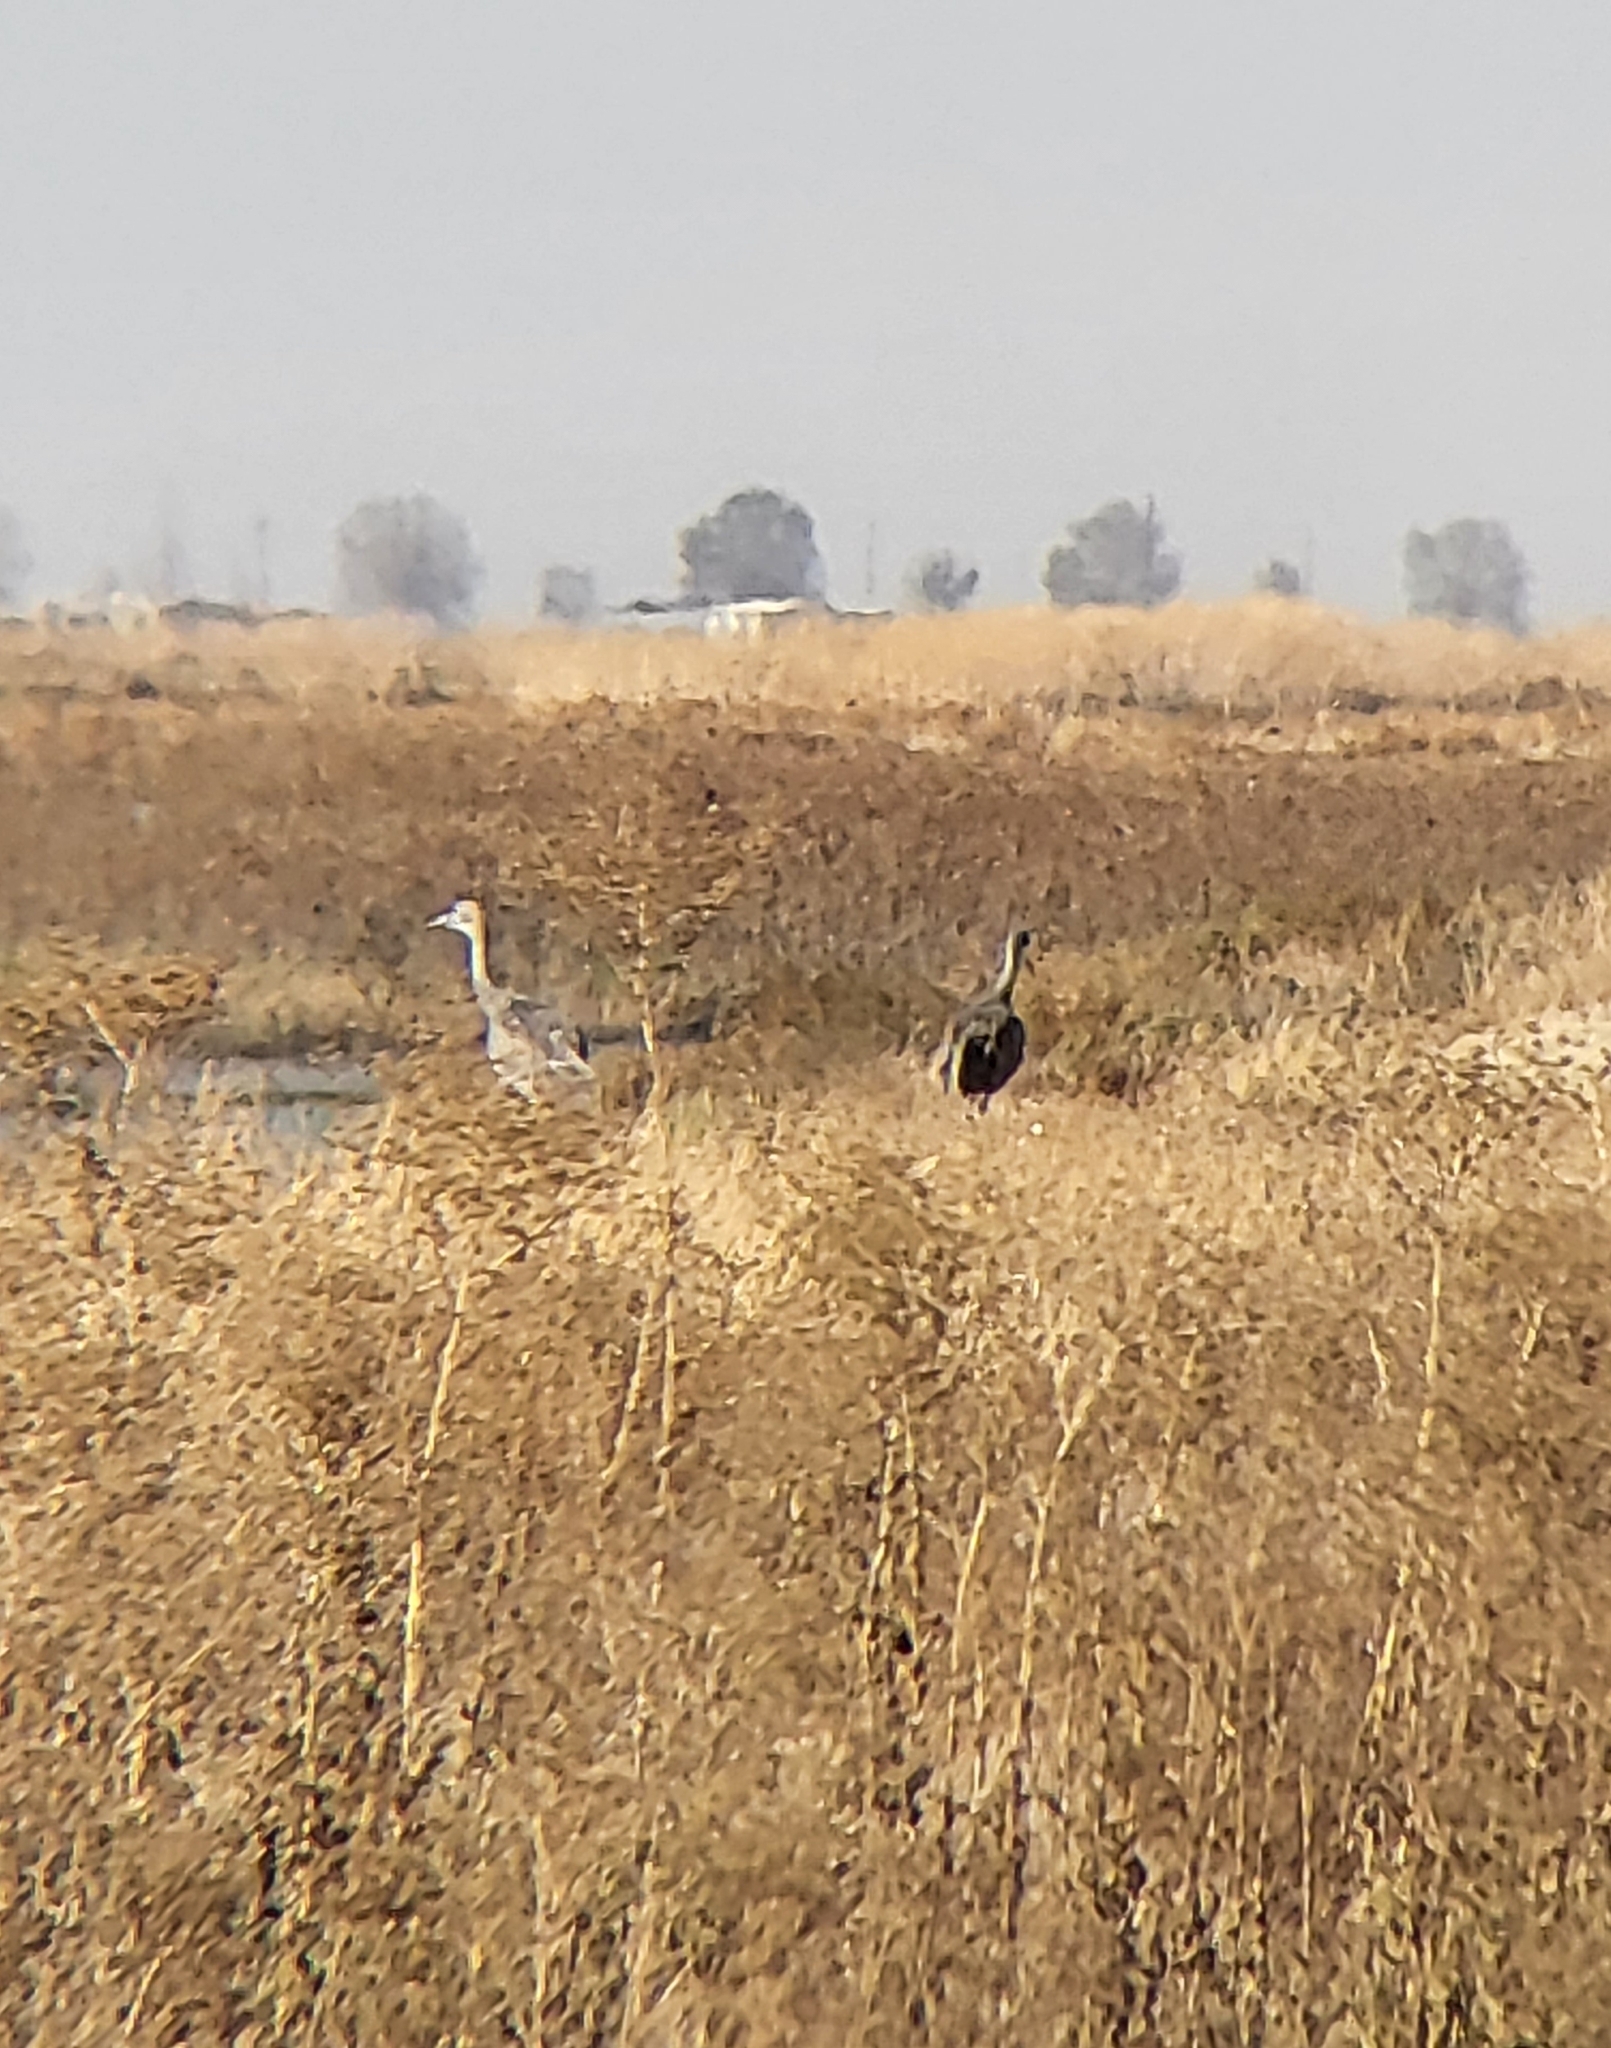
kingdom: Animalia
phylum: Chordata
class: Aves
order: Gruiformes
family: Gruidae
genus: Grus
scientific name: Grus canadensis
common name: Sandhill crane
